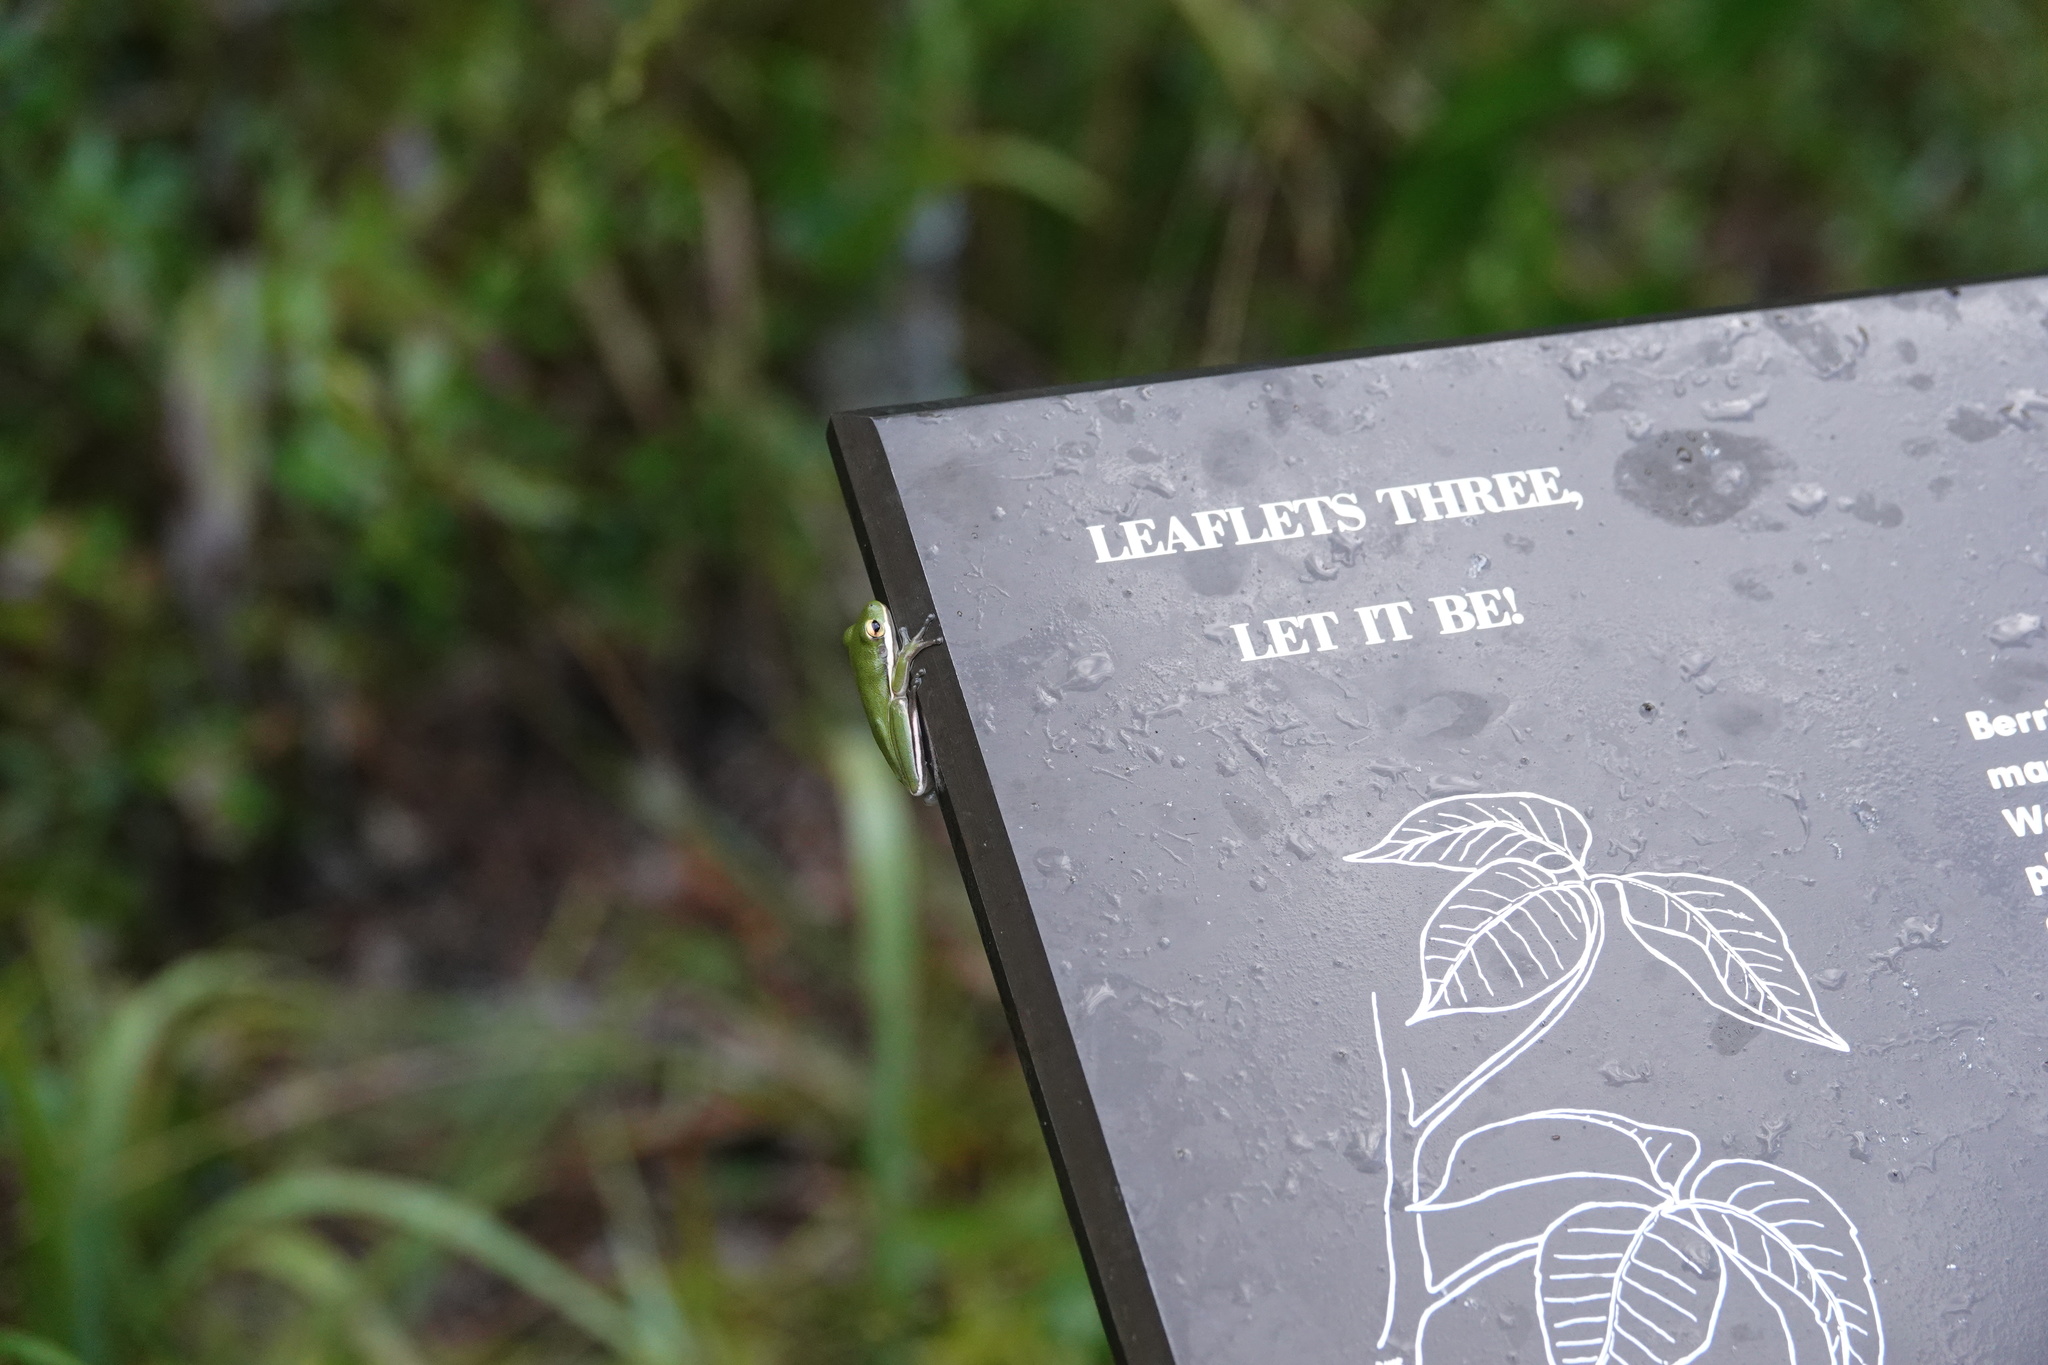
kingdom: Animalia
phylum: Chordata
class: Amphibia
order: Anura
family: Hylidae
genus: Dryophytes
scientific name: Dryophytes cinereus
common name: Green treefrog
